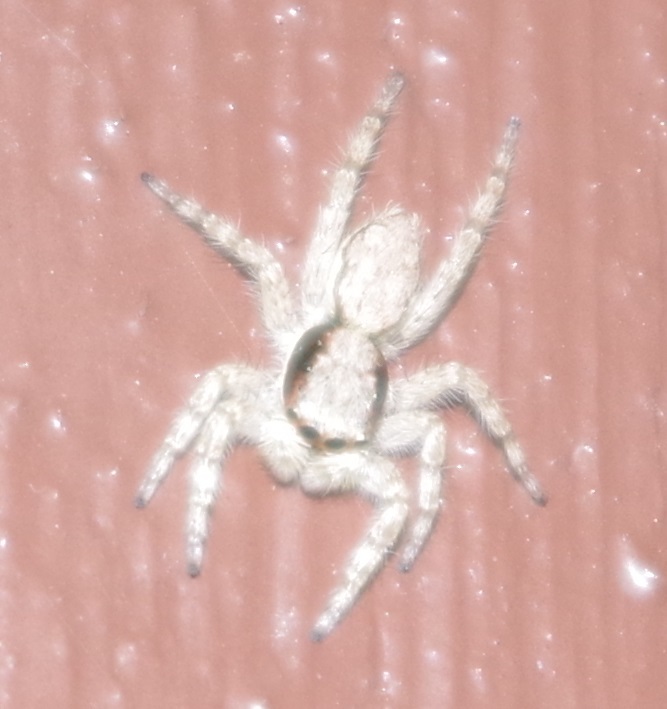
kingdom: Animalia
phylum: Arthropoda
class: Arachnida
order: Araneae
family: Salticidae
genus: Menemerus
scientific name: Menemerus bivittatus
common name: Gray wall jumper
